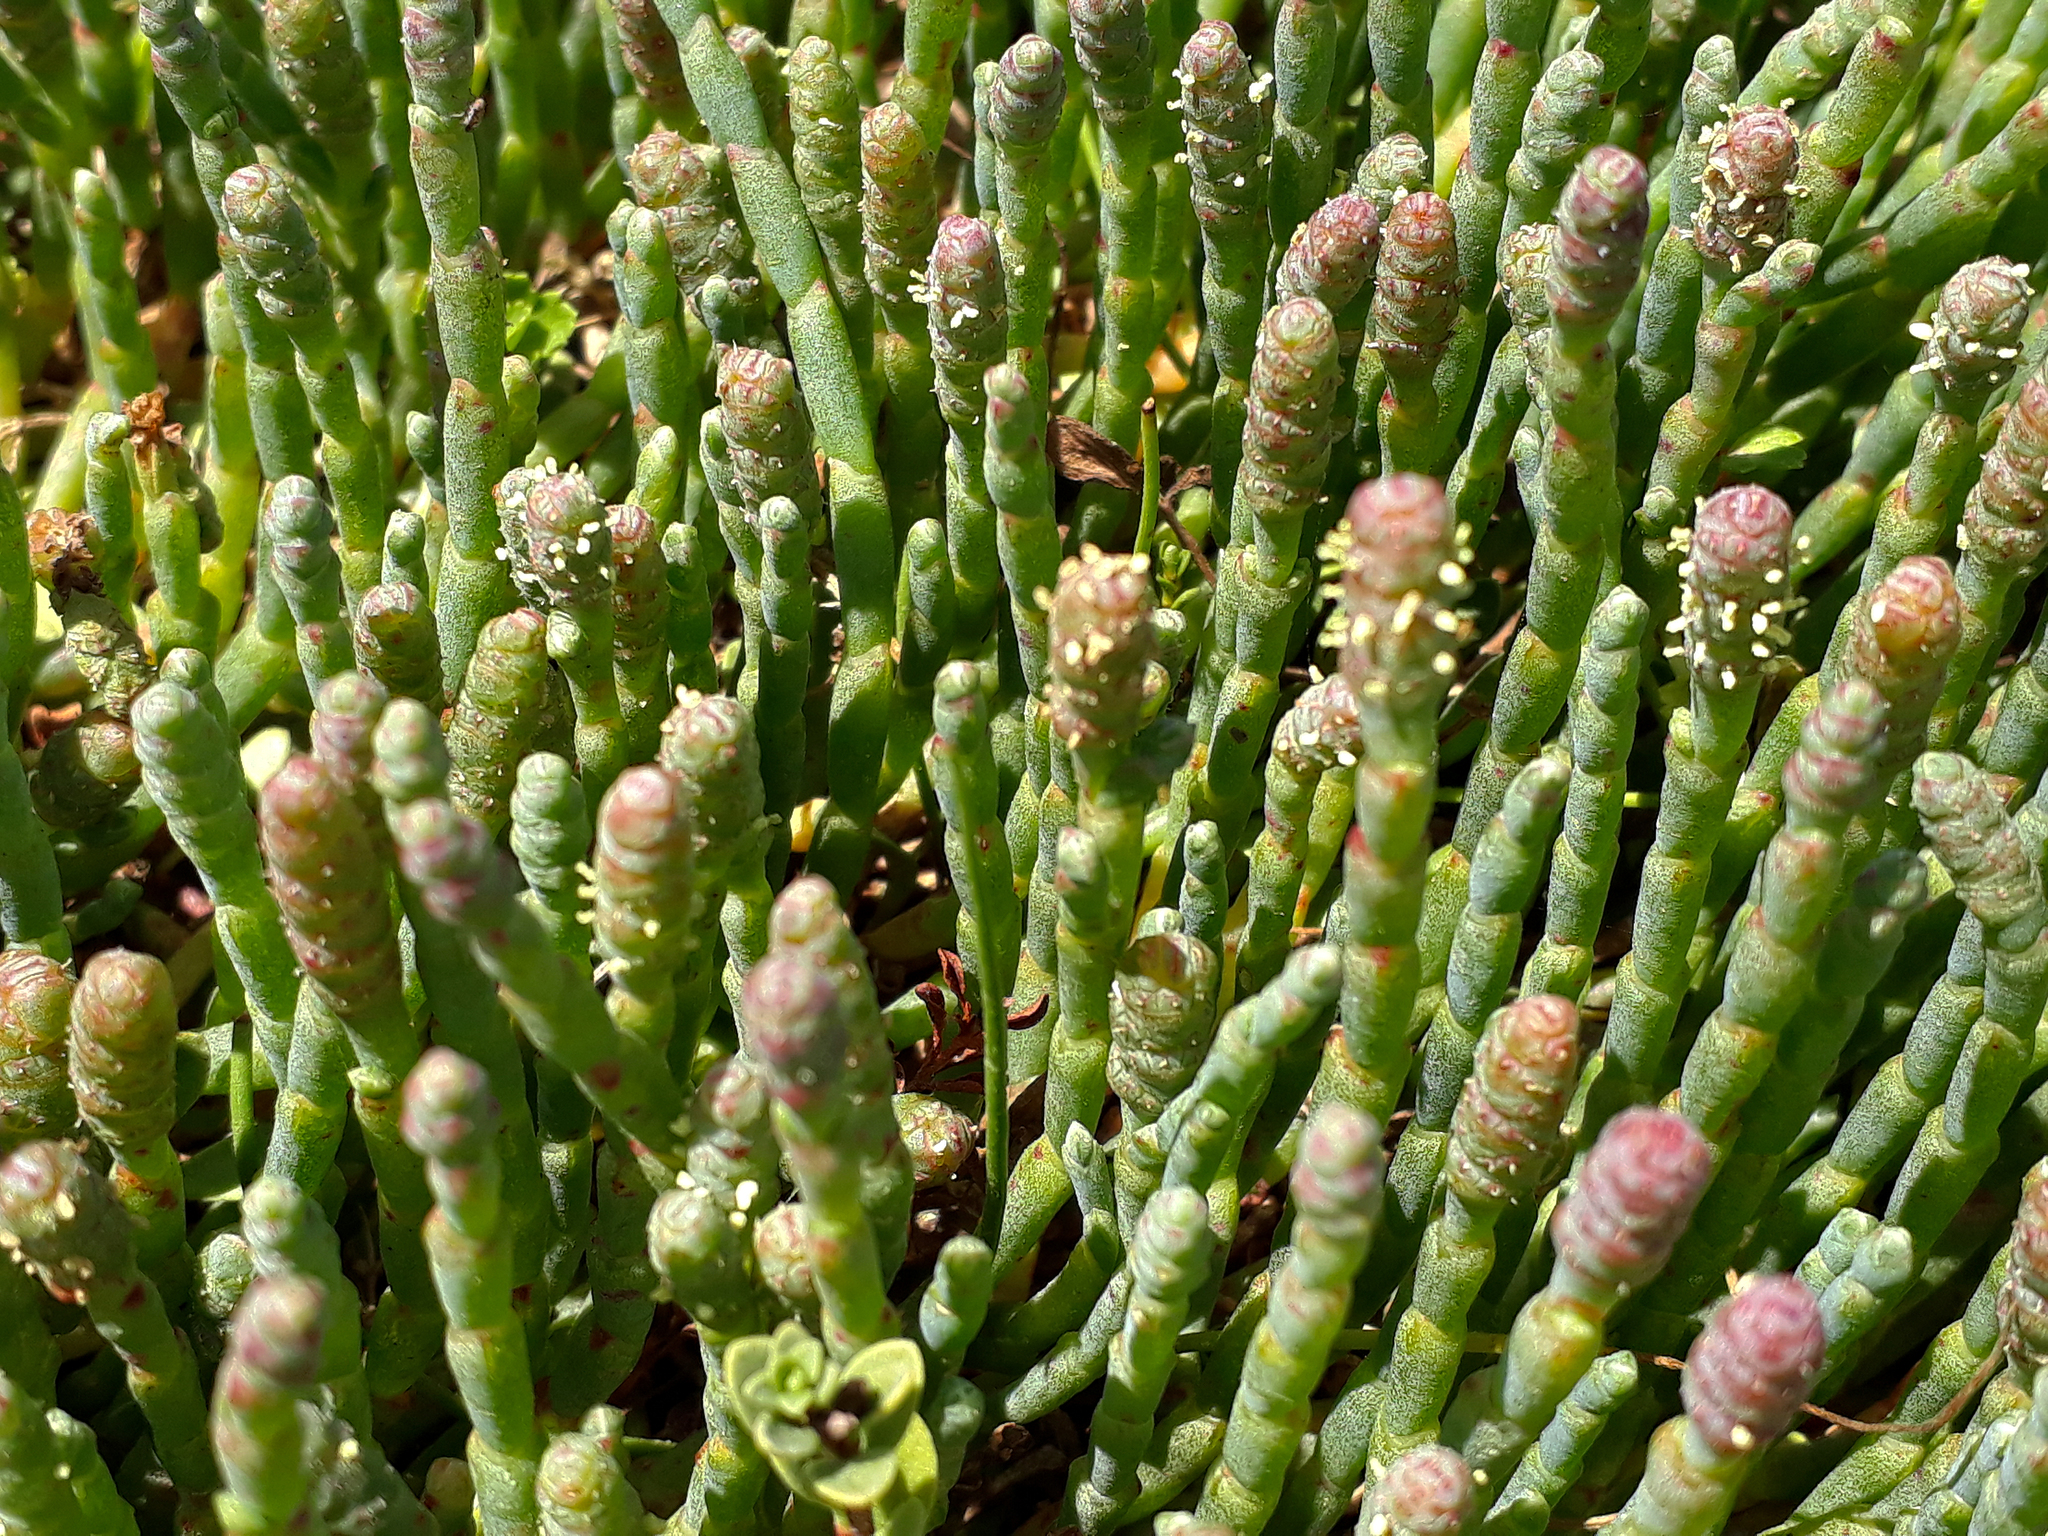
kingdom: Plantae
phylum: Tracheophyta
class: Magnoliopsida
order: Caryophyllales
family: Amaranthaceae
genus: Salicornia
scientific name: Salicornia quinqueflora
